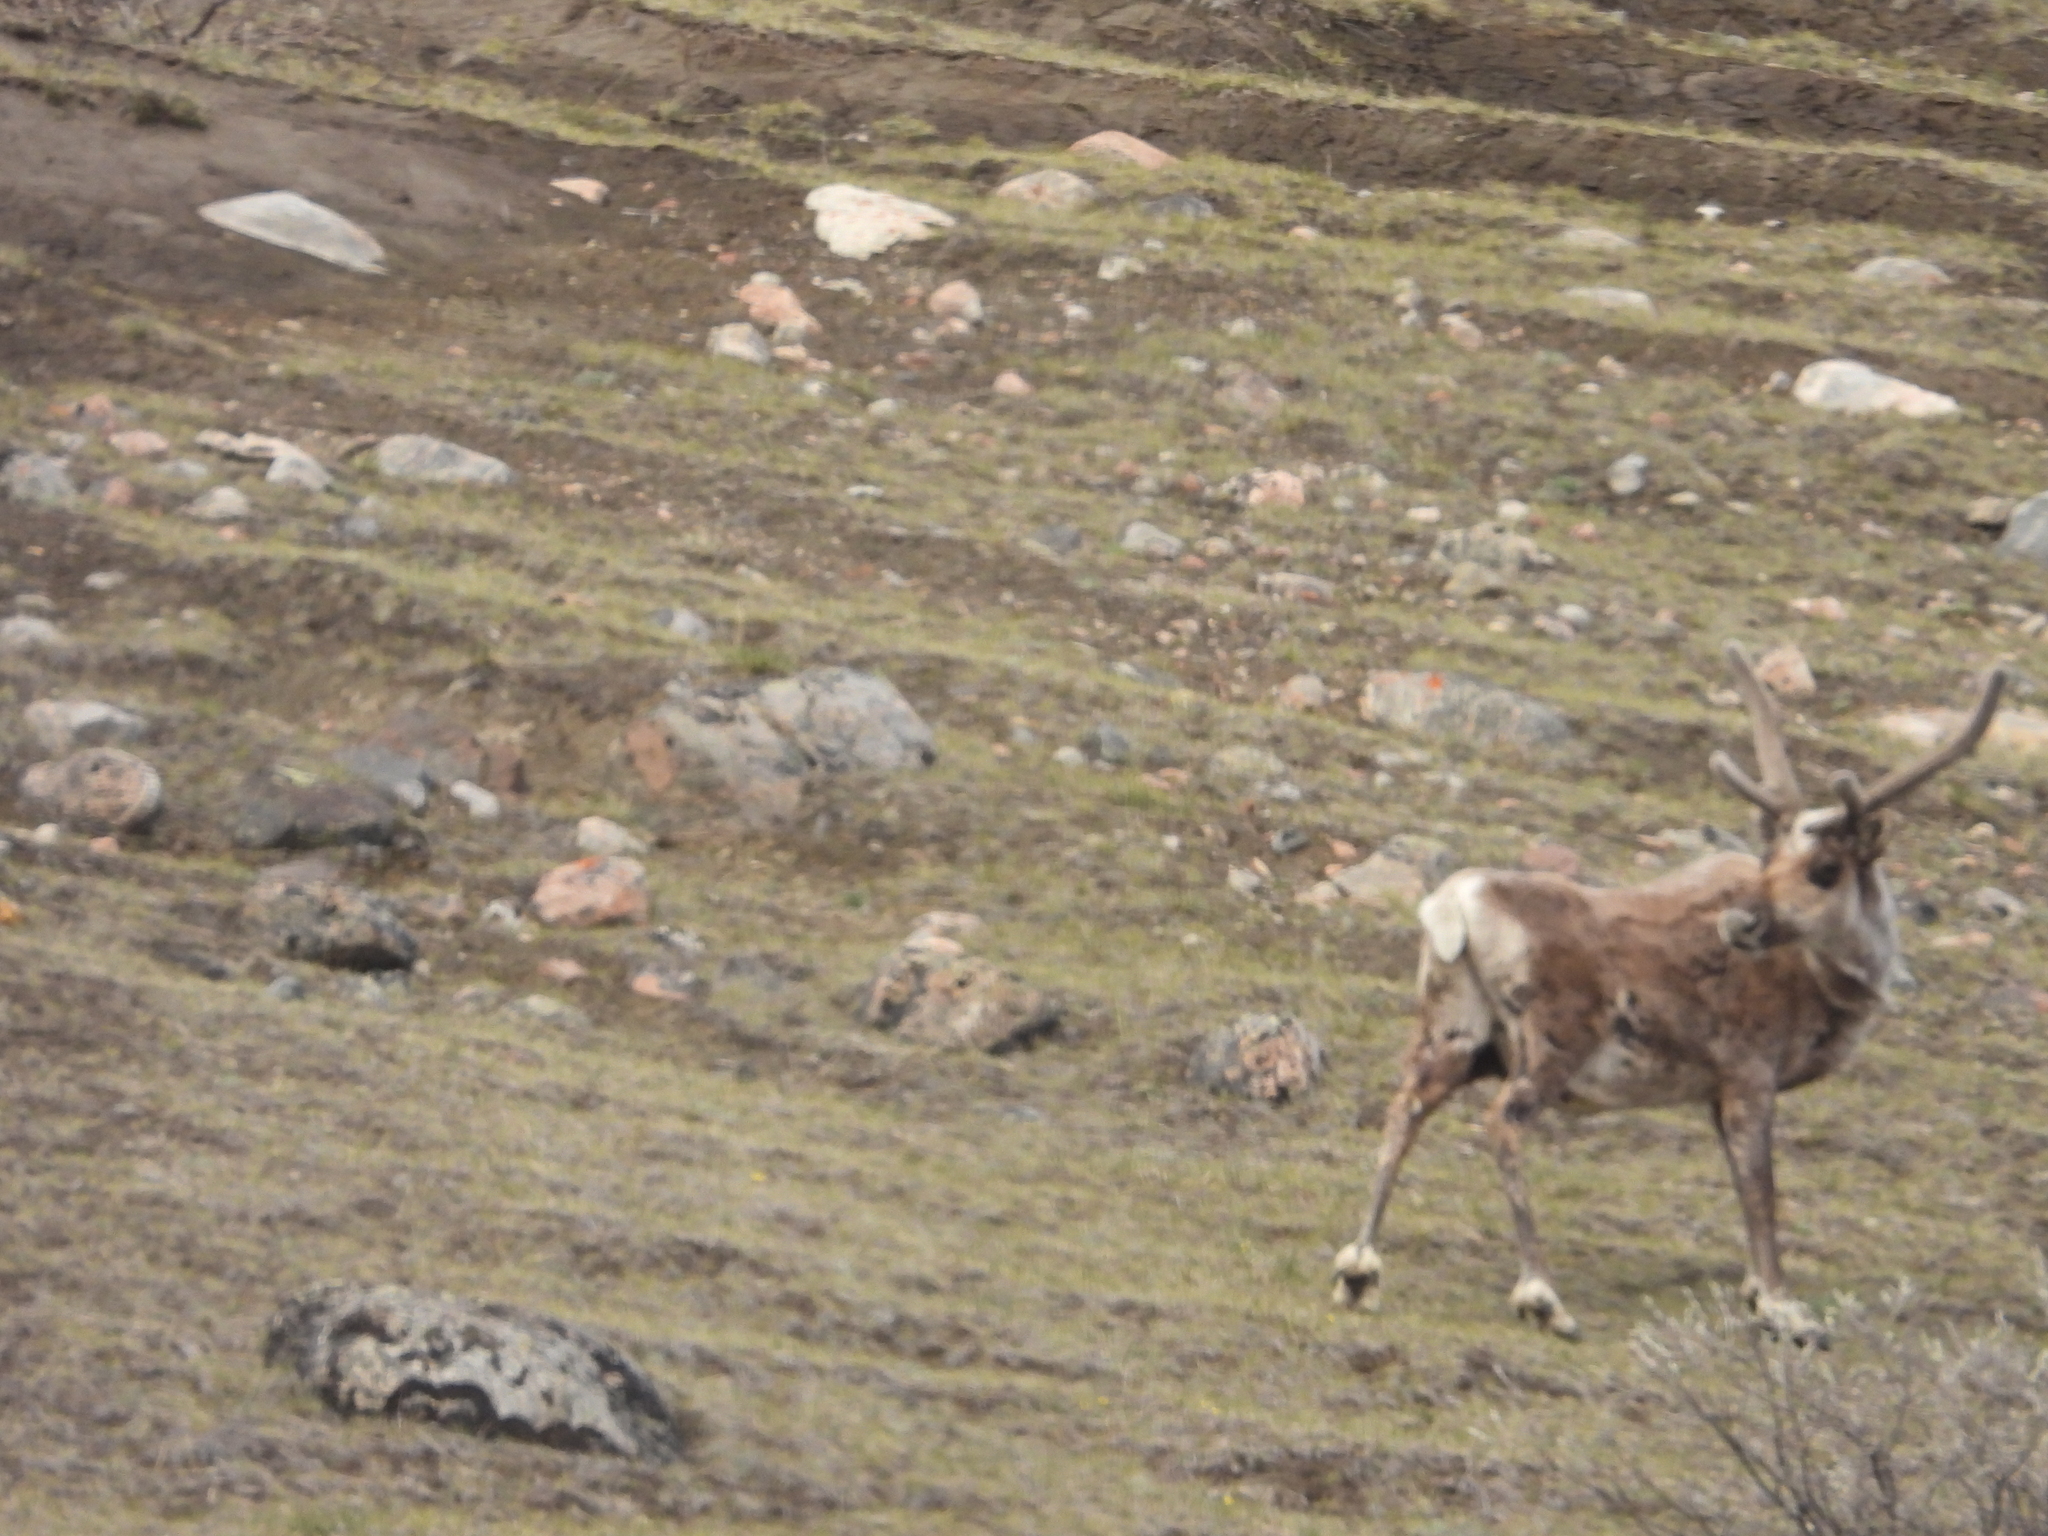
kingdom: Animalia
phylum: Chordata
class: Mammalia
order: Artiodactyla
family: Cervidae
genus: Rangifer
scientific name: Rangifer tarandus
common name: Reindeer
